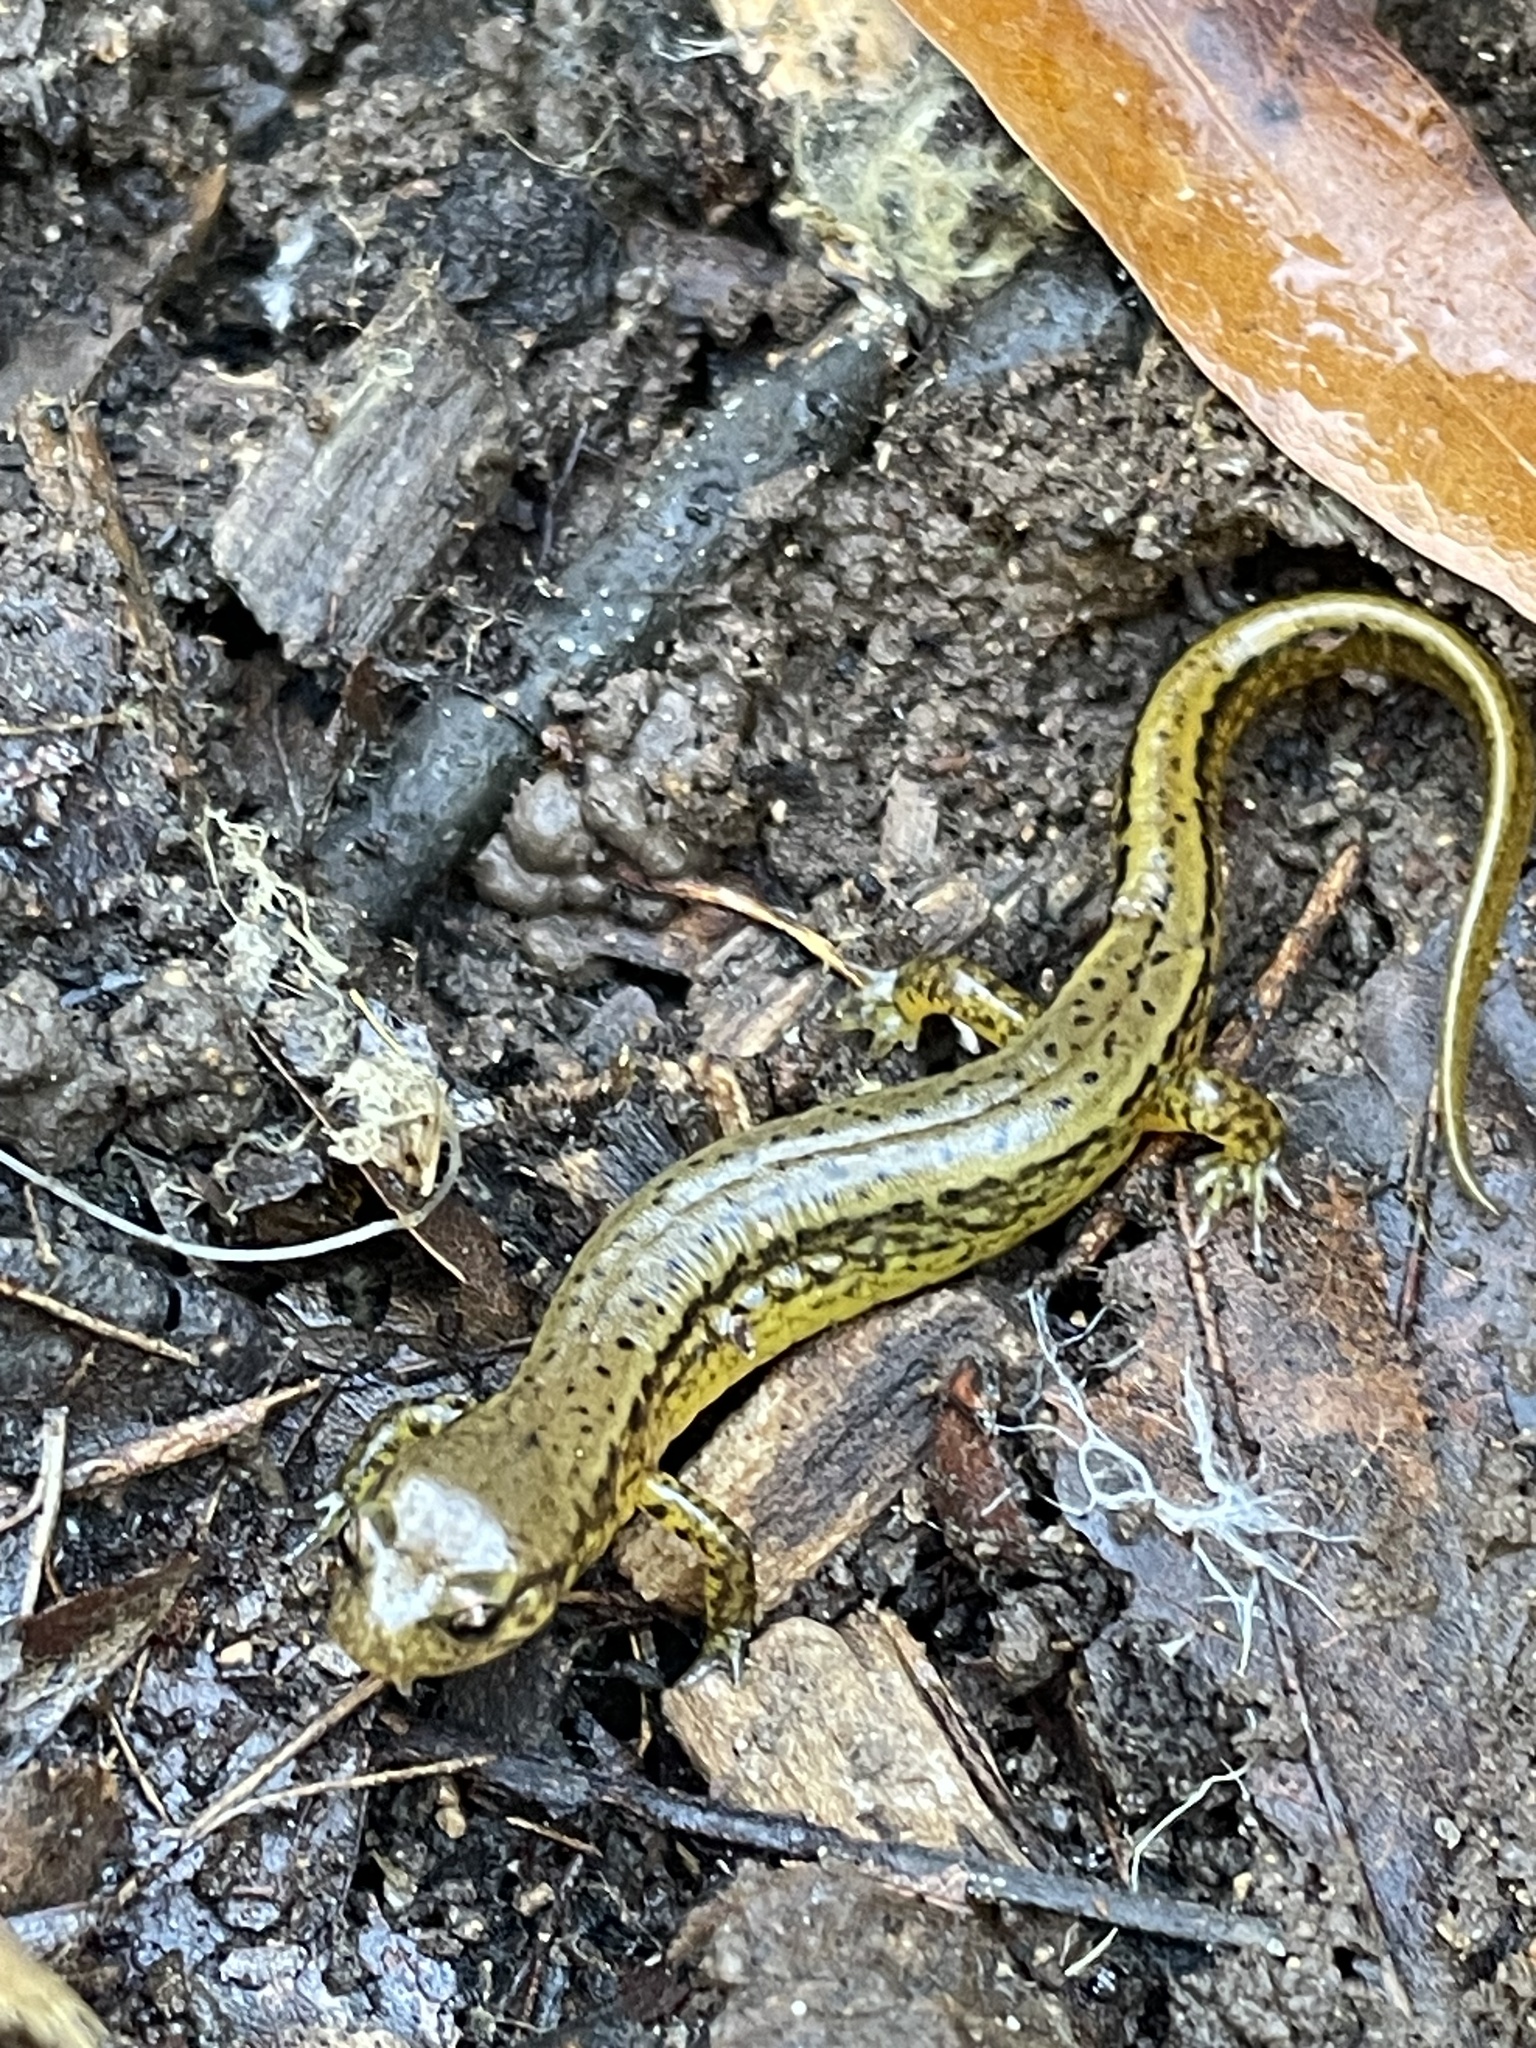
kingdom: Animalia
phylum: Chordata
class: Amphibia
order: Caudata
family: Plethodontidae
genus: Eurycea
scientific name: Eurycea cirrigera
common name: Southern two-lined salamander
